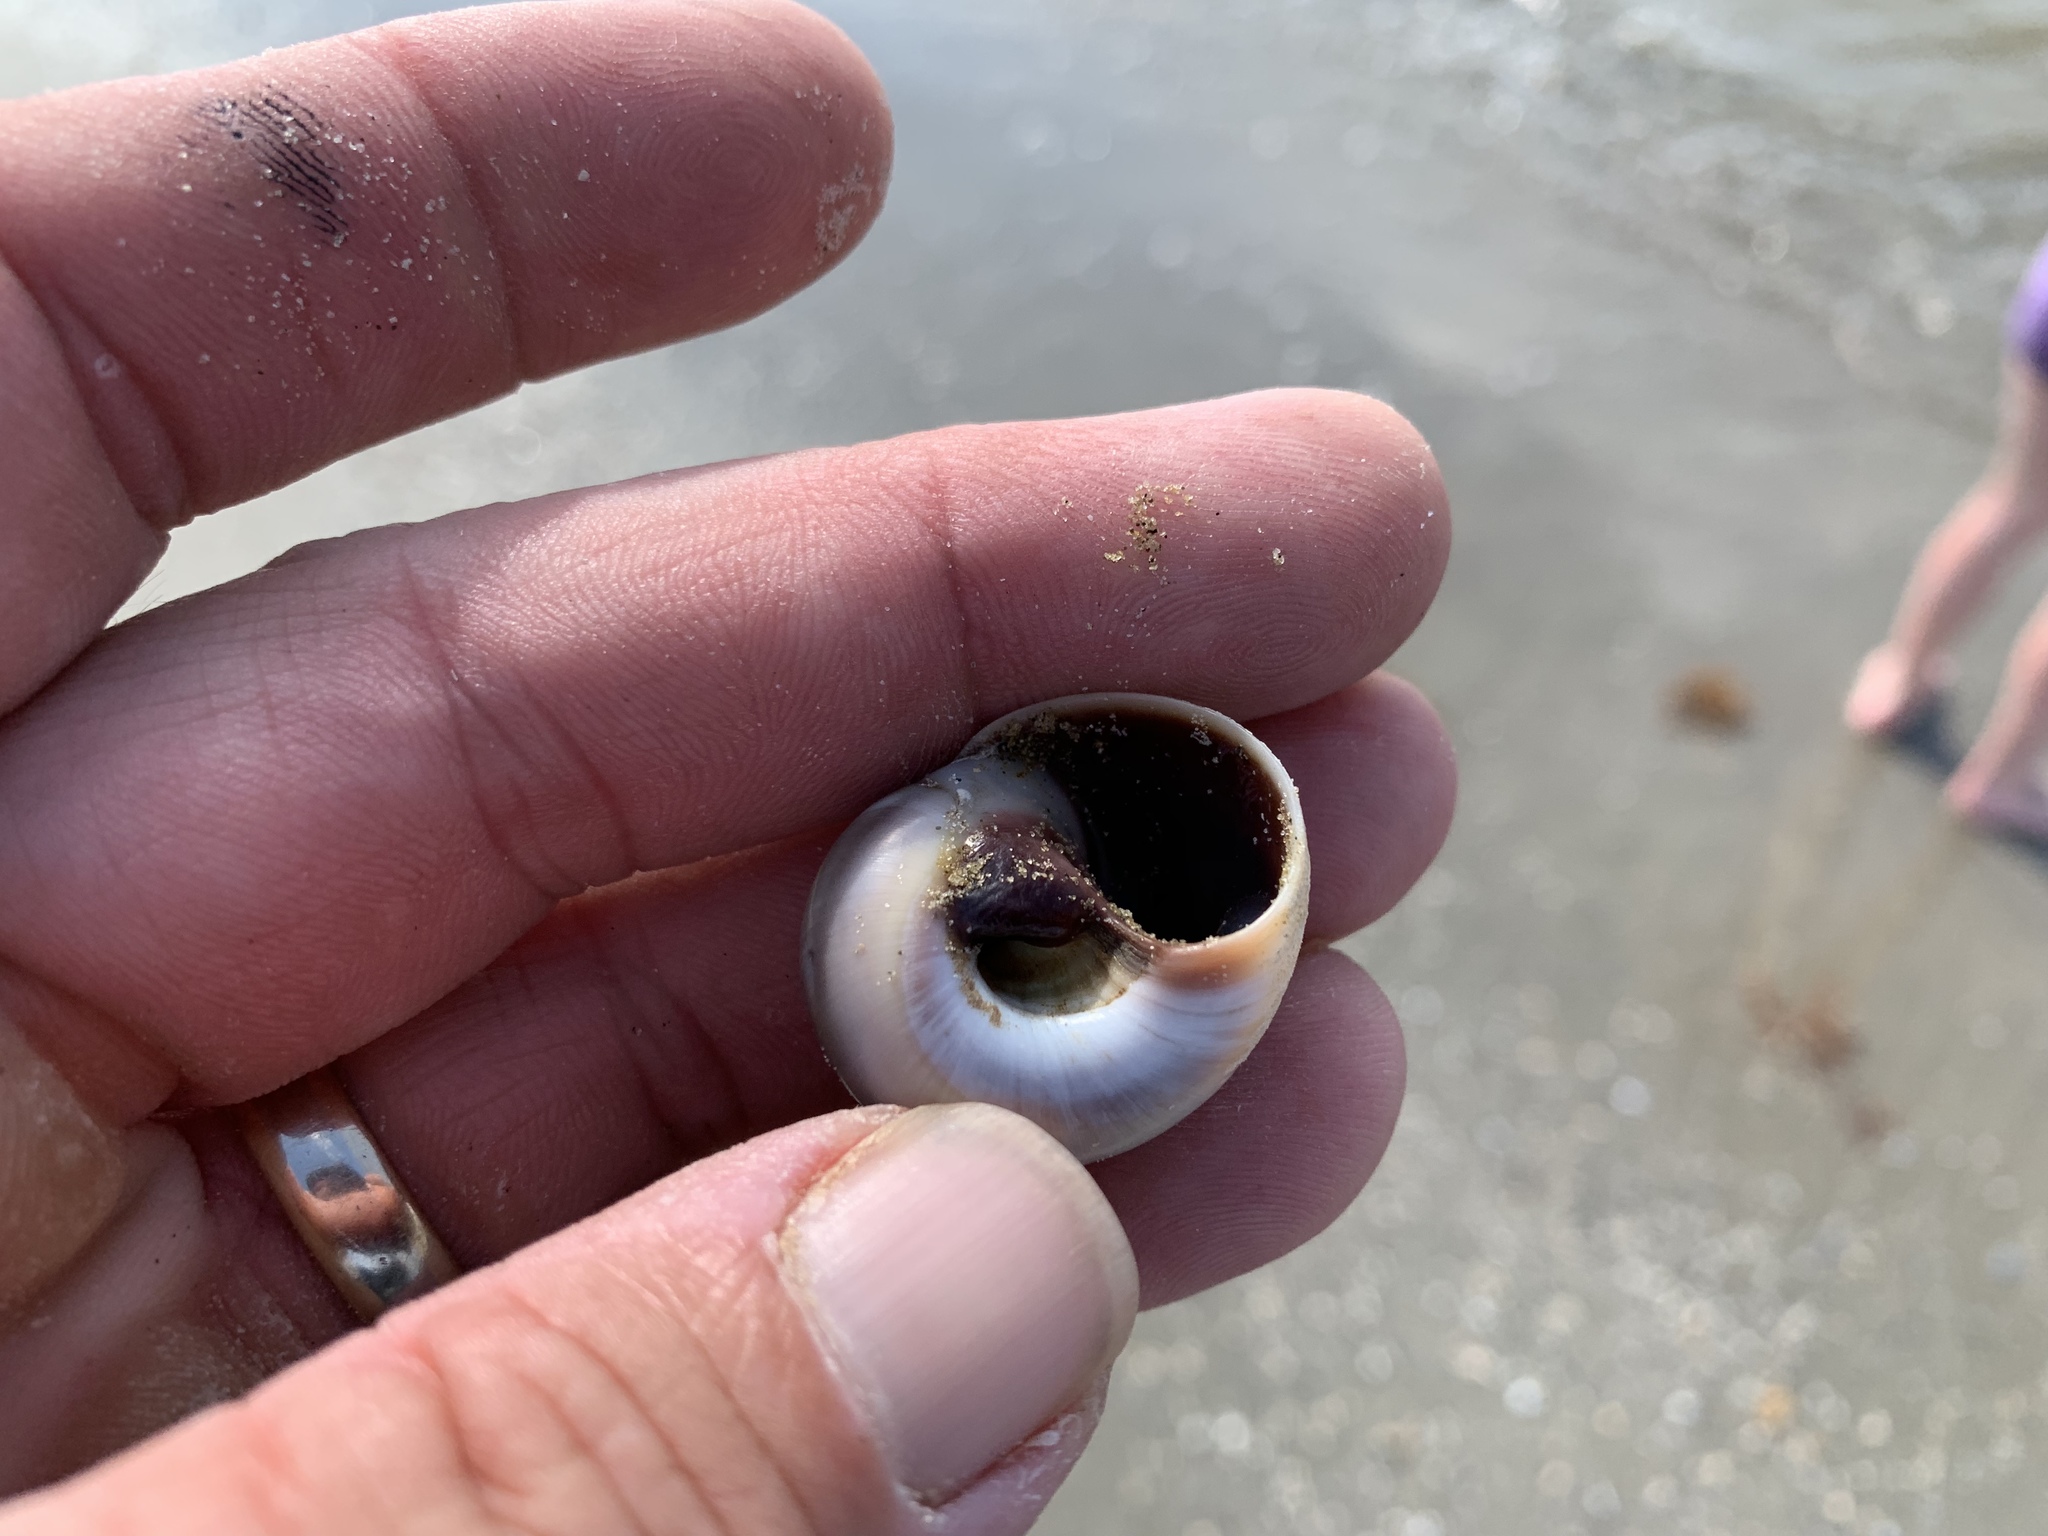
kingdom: Animalia
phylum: Mollusca
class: Gastropoda
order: Littorinimorpha
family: Naticidae
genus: Neverita
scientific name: Neverita delessertiana
